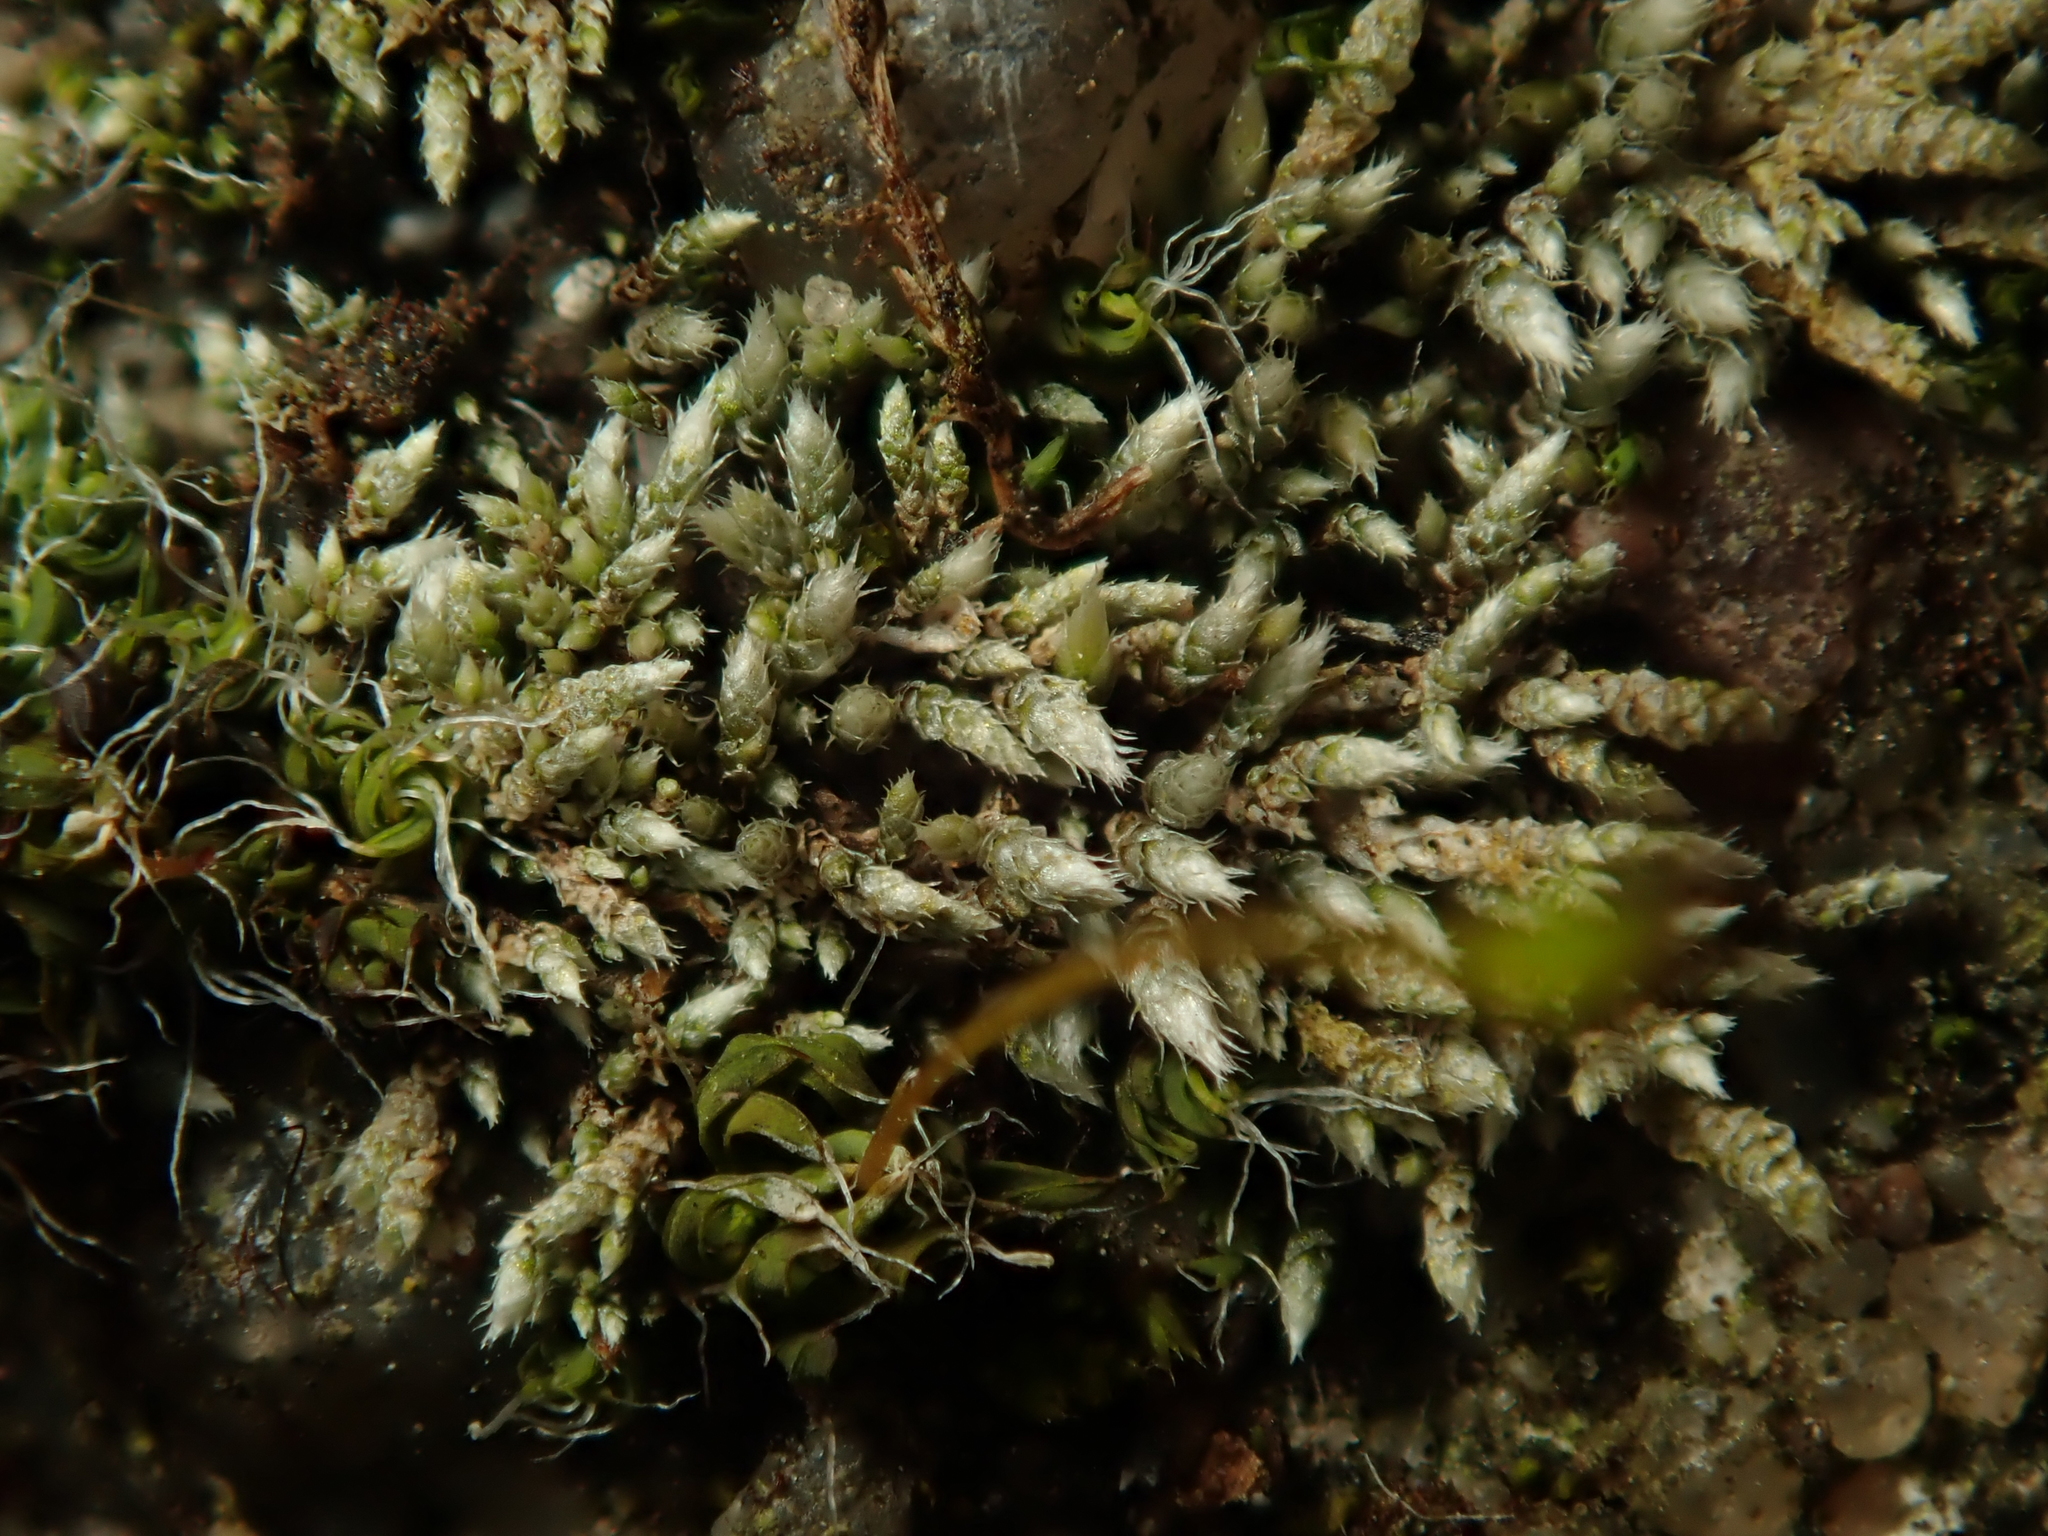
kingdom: Plantae
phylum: Bryophyta
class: Bryopsida
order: Bryales
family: Bryaceae
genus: Bryum
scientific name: Bryum argenteum
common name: Silver-moss
